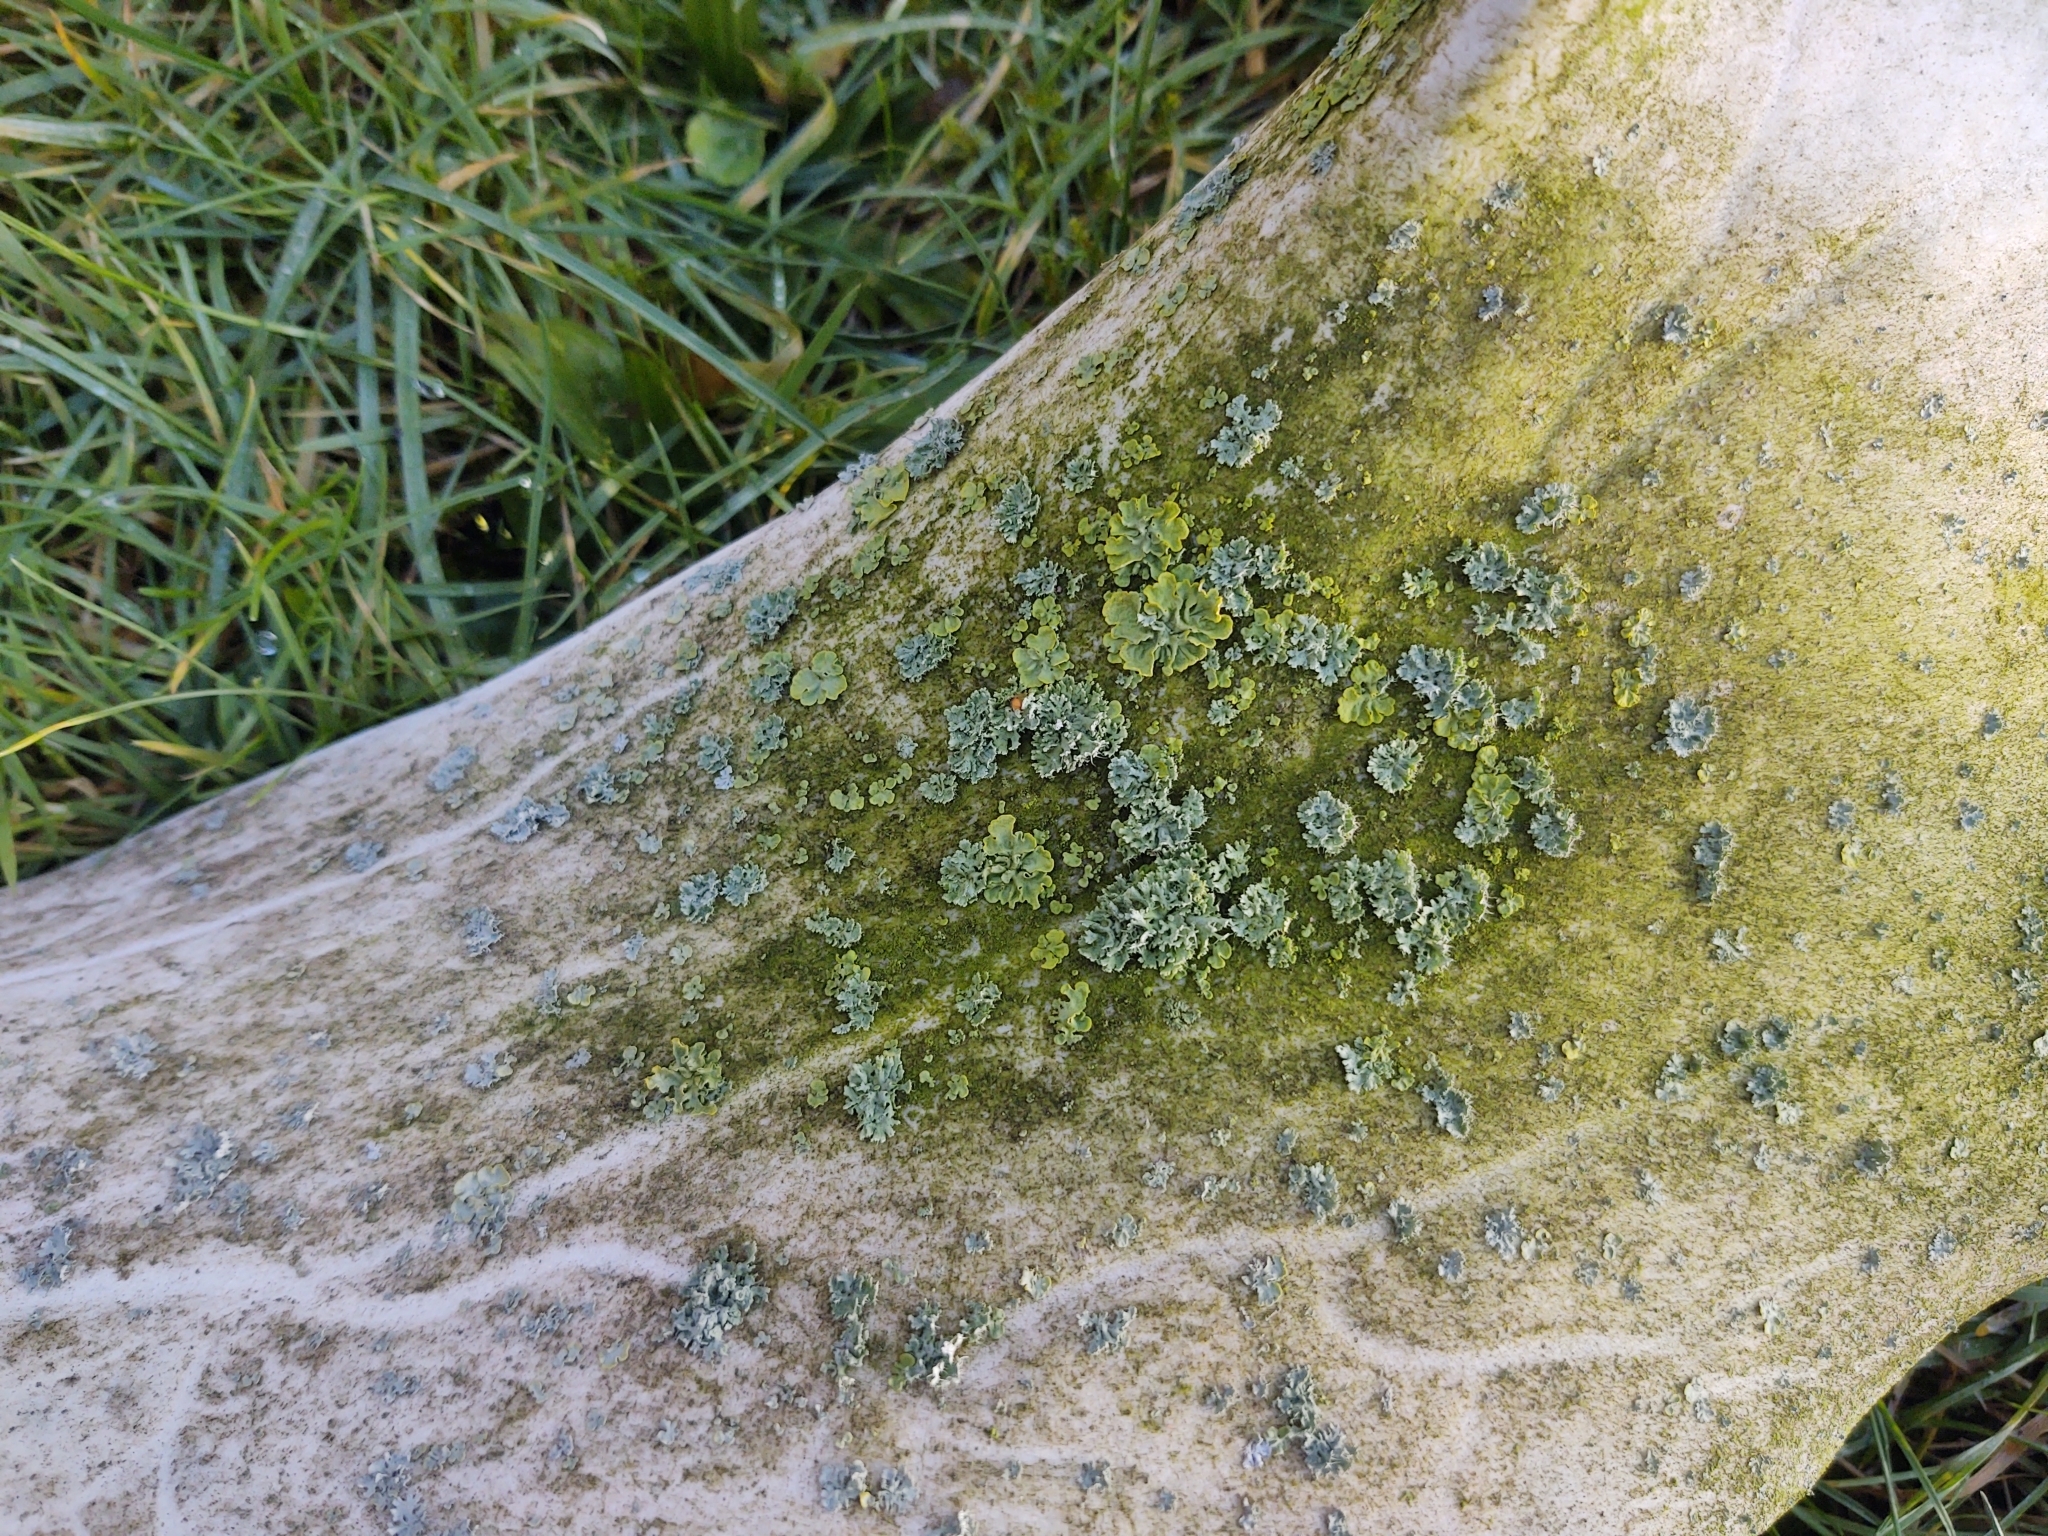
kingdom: Fungi
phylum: Ascomycota
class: Lecanoromycetes
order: Teloschistales
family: Teloschistaceae
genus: Xanthoria
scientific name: Xanthoria parietina
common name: Common orange lichen
